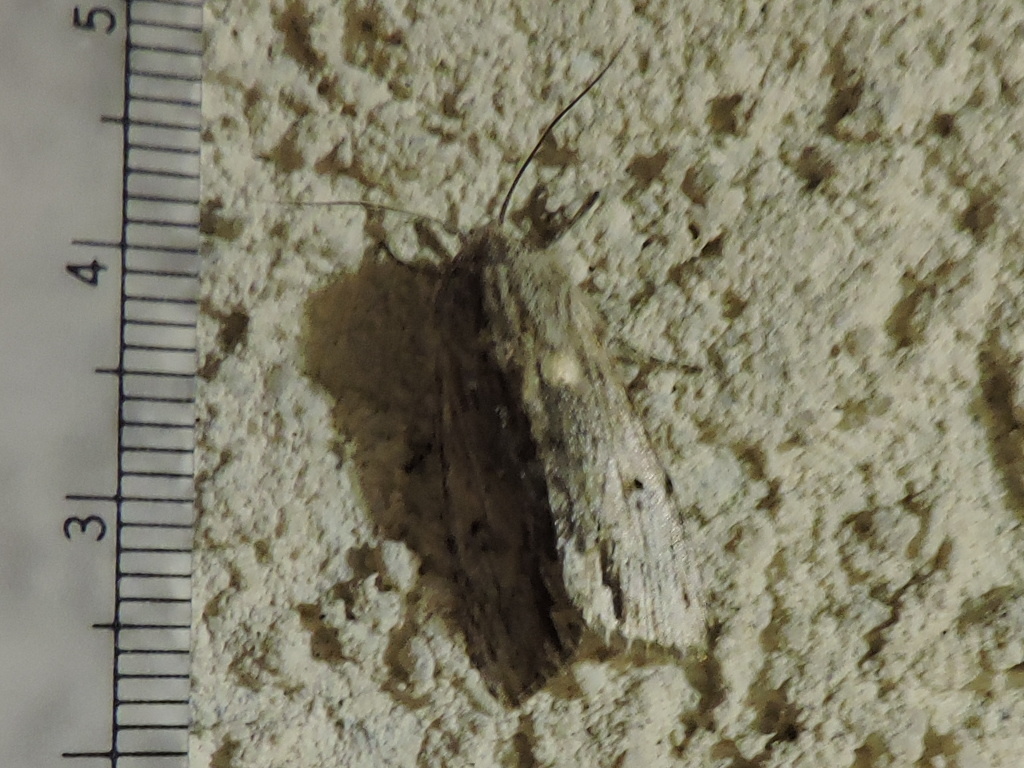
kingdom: Animalia
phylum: Arthropoda
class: Insecta
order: Lepidoptera
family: Noctuidae
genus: Spodoptera
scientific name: Spodoptera eridania
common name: Southern army worm
